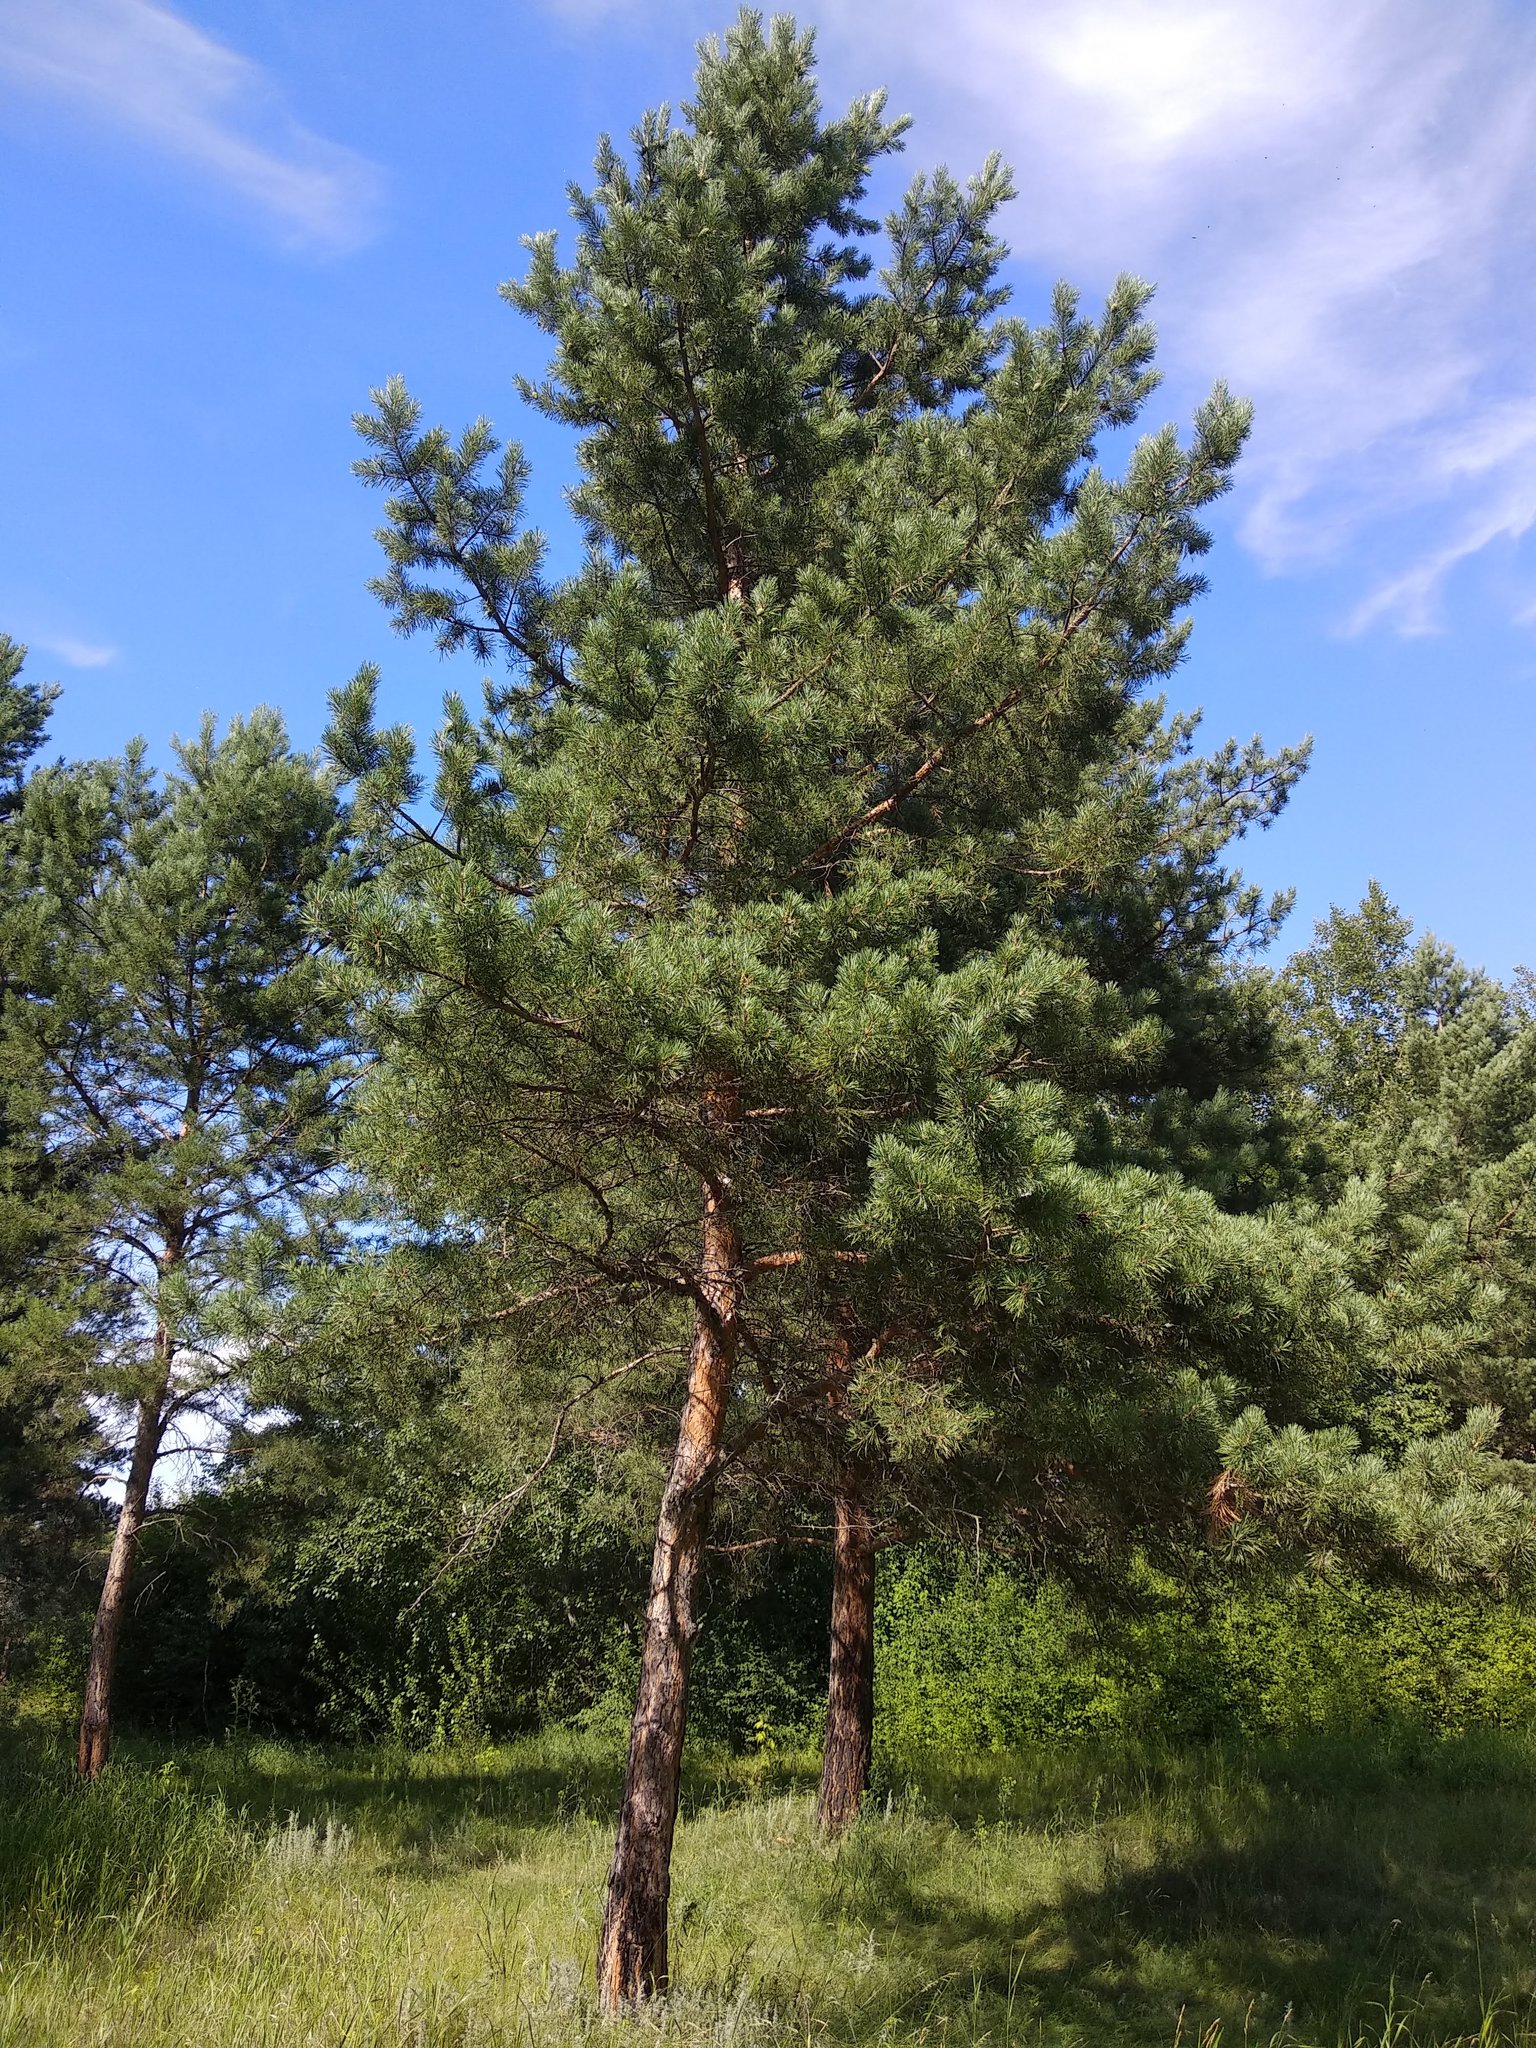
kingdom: Plantae
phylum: Tracheophyta
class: Pinopsida
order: Pinales
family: Pinaceae
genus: Pinus
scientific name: Pinus sylvestris
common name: Scots pine
